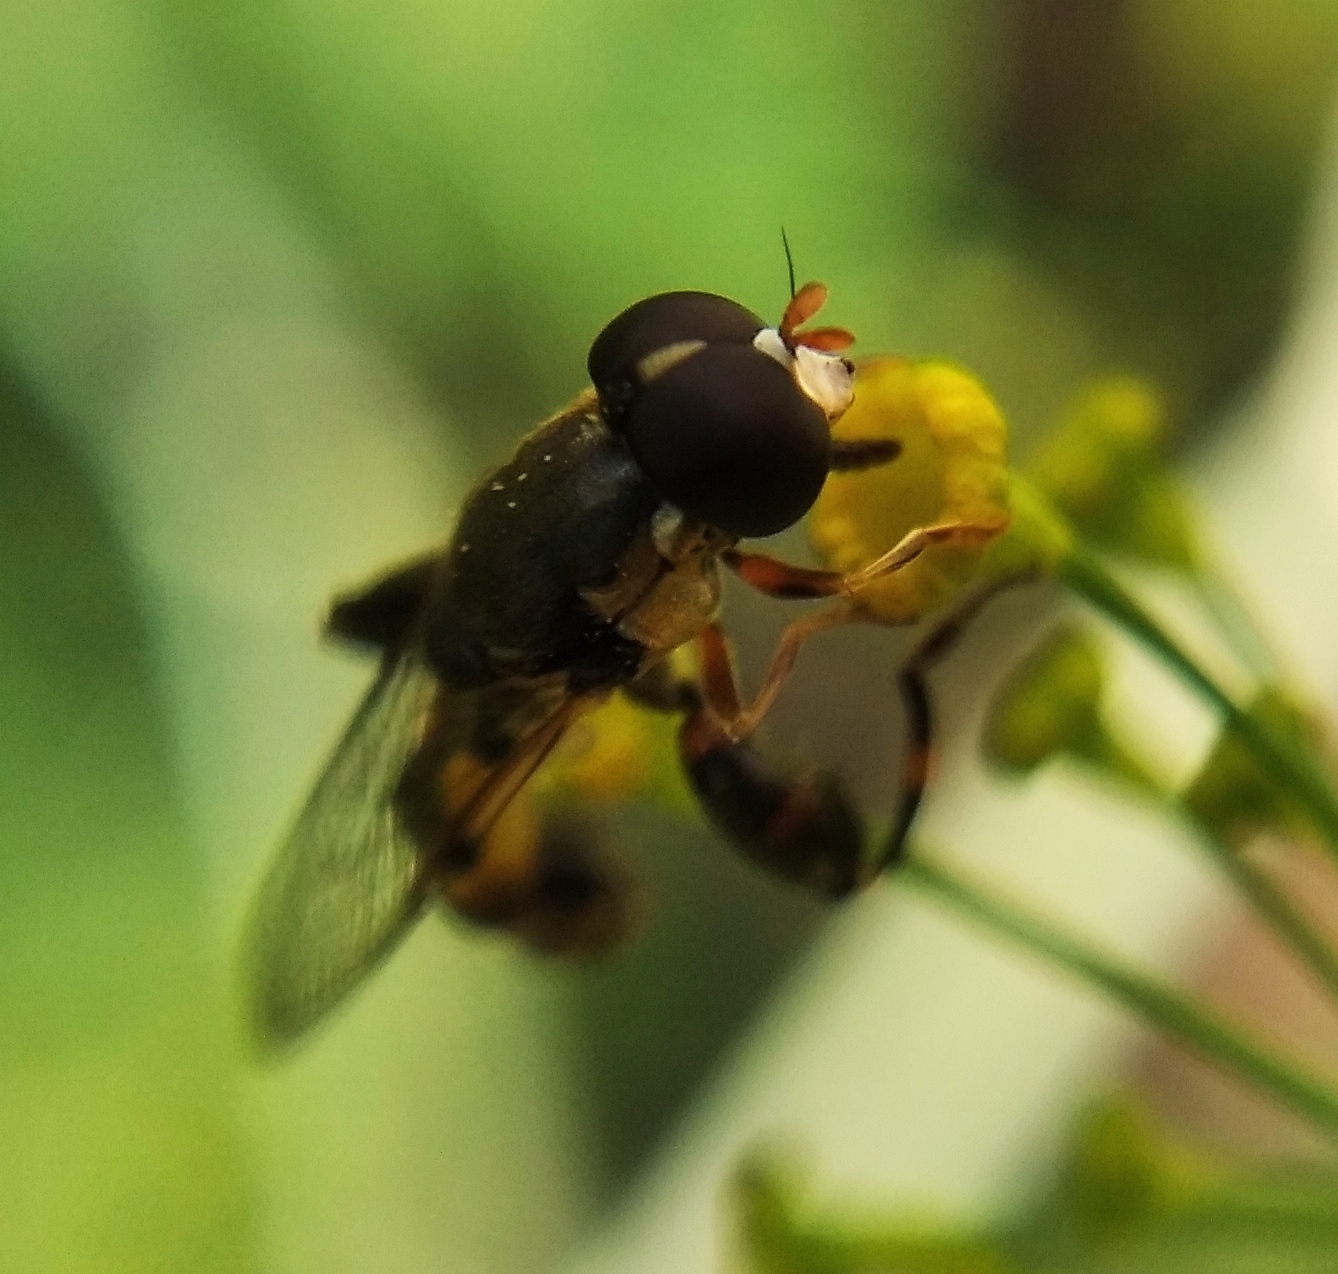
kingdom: Animalia
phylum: Arthropoda
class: Insecta
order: Diptera
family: Syrphidae
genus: Syritta
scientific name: Syritta pipiens
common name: Hover fly
